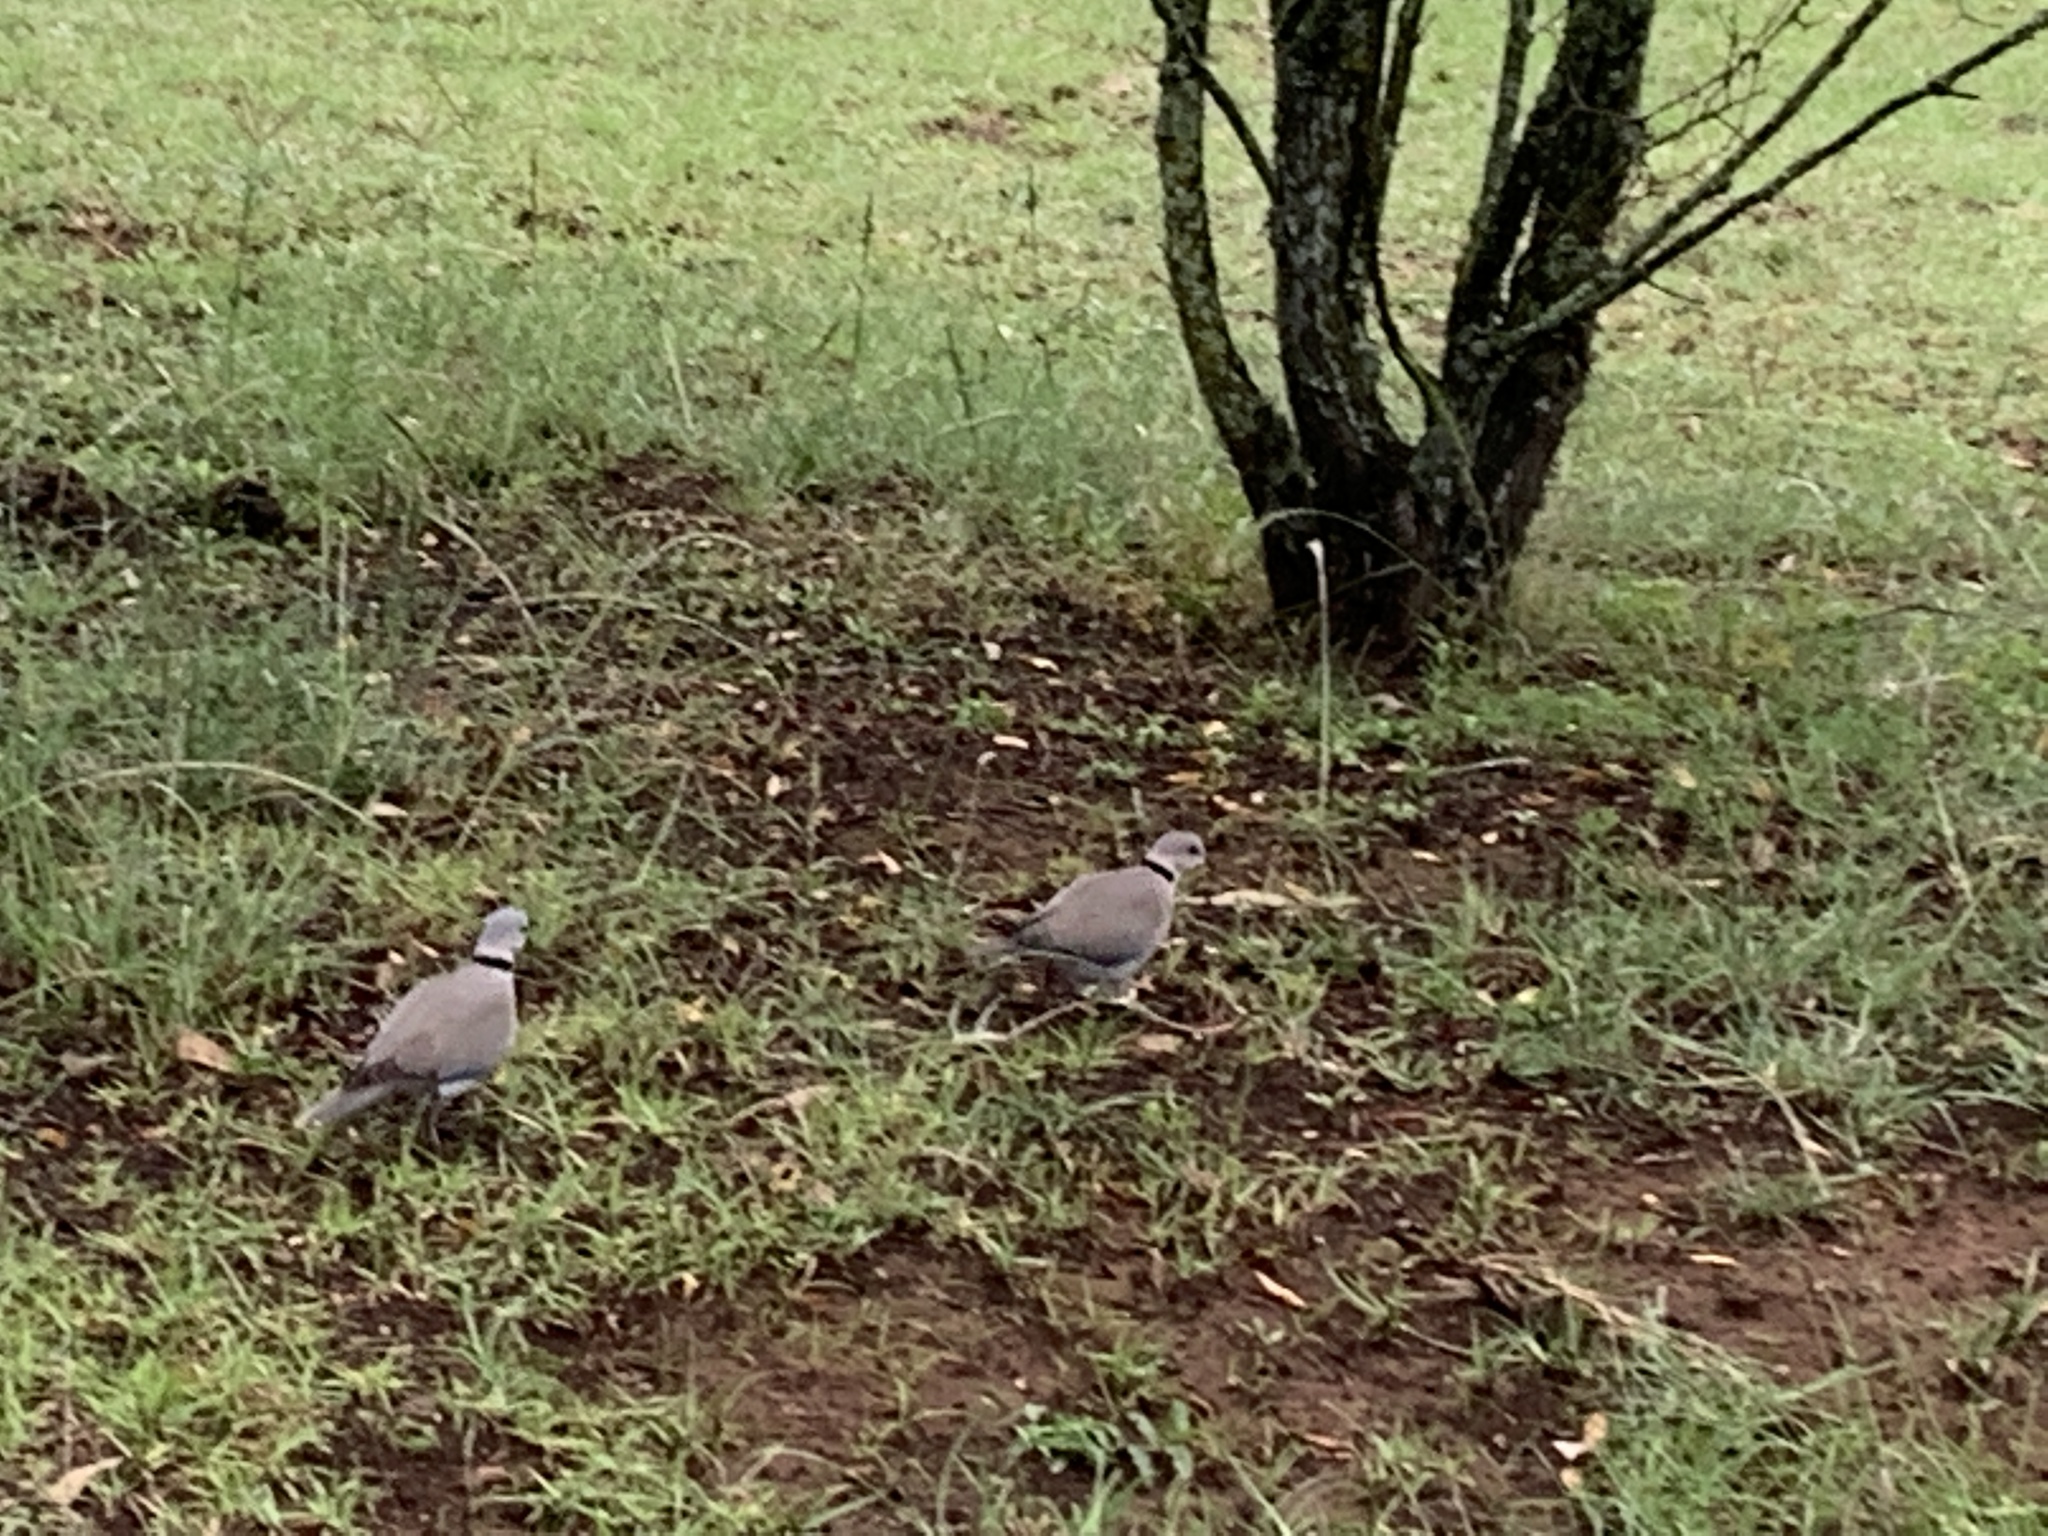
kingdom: Animalia
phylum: Chordata
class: Aves
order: Columbiformes
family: Columbidae
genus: Streptopelia
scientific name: Streptopelia capicola
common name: Ring-necked dove
